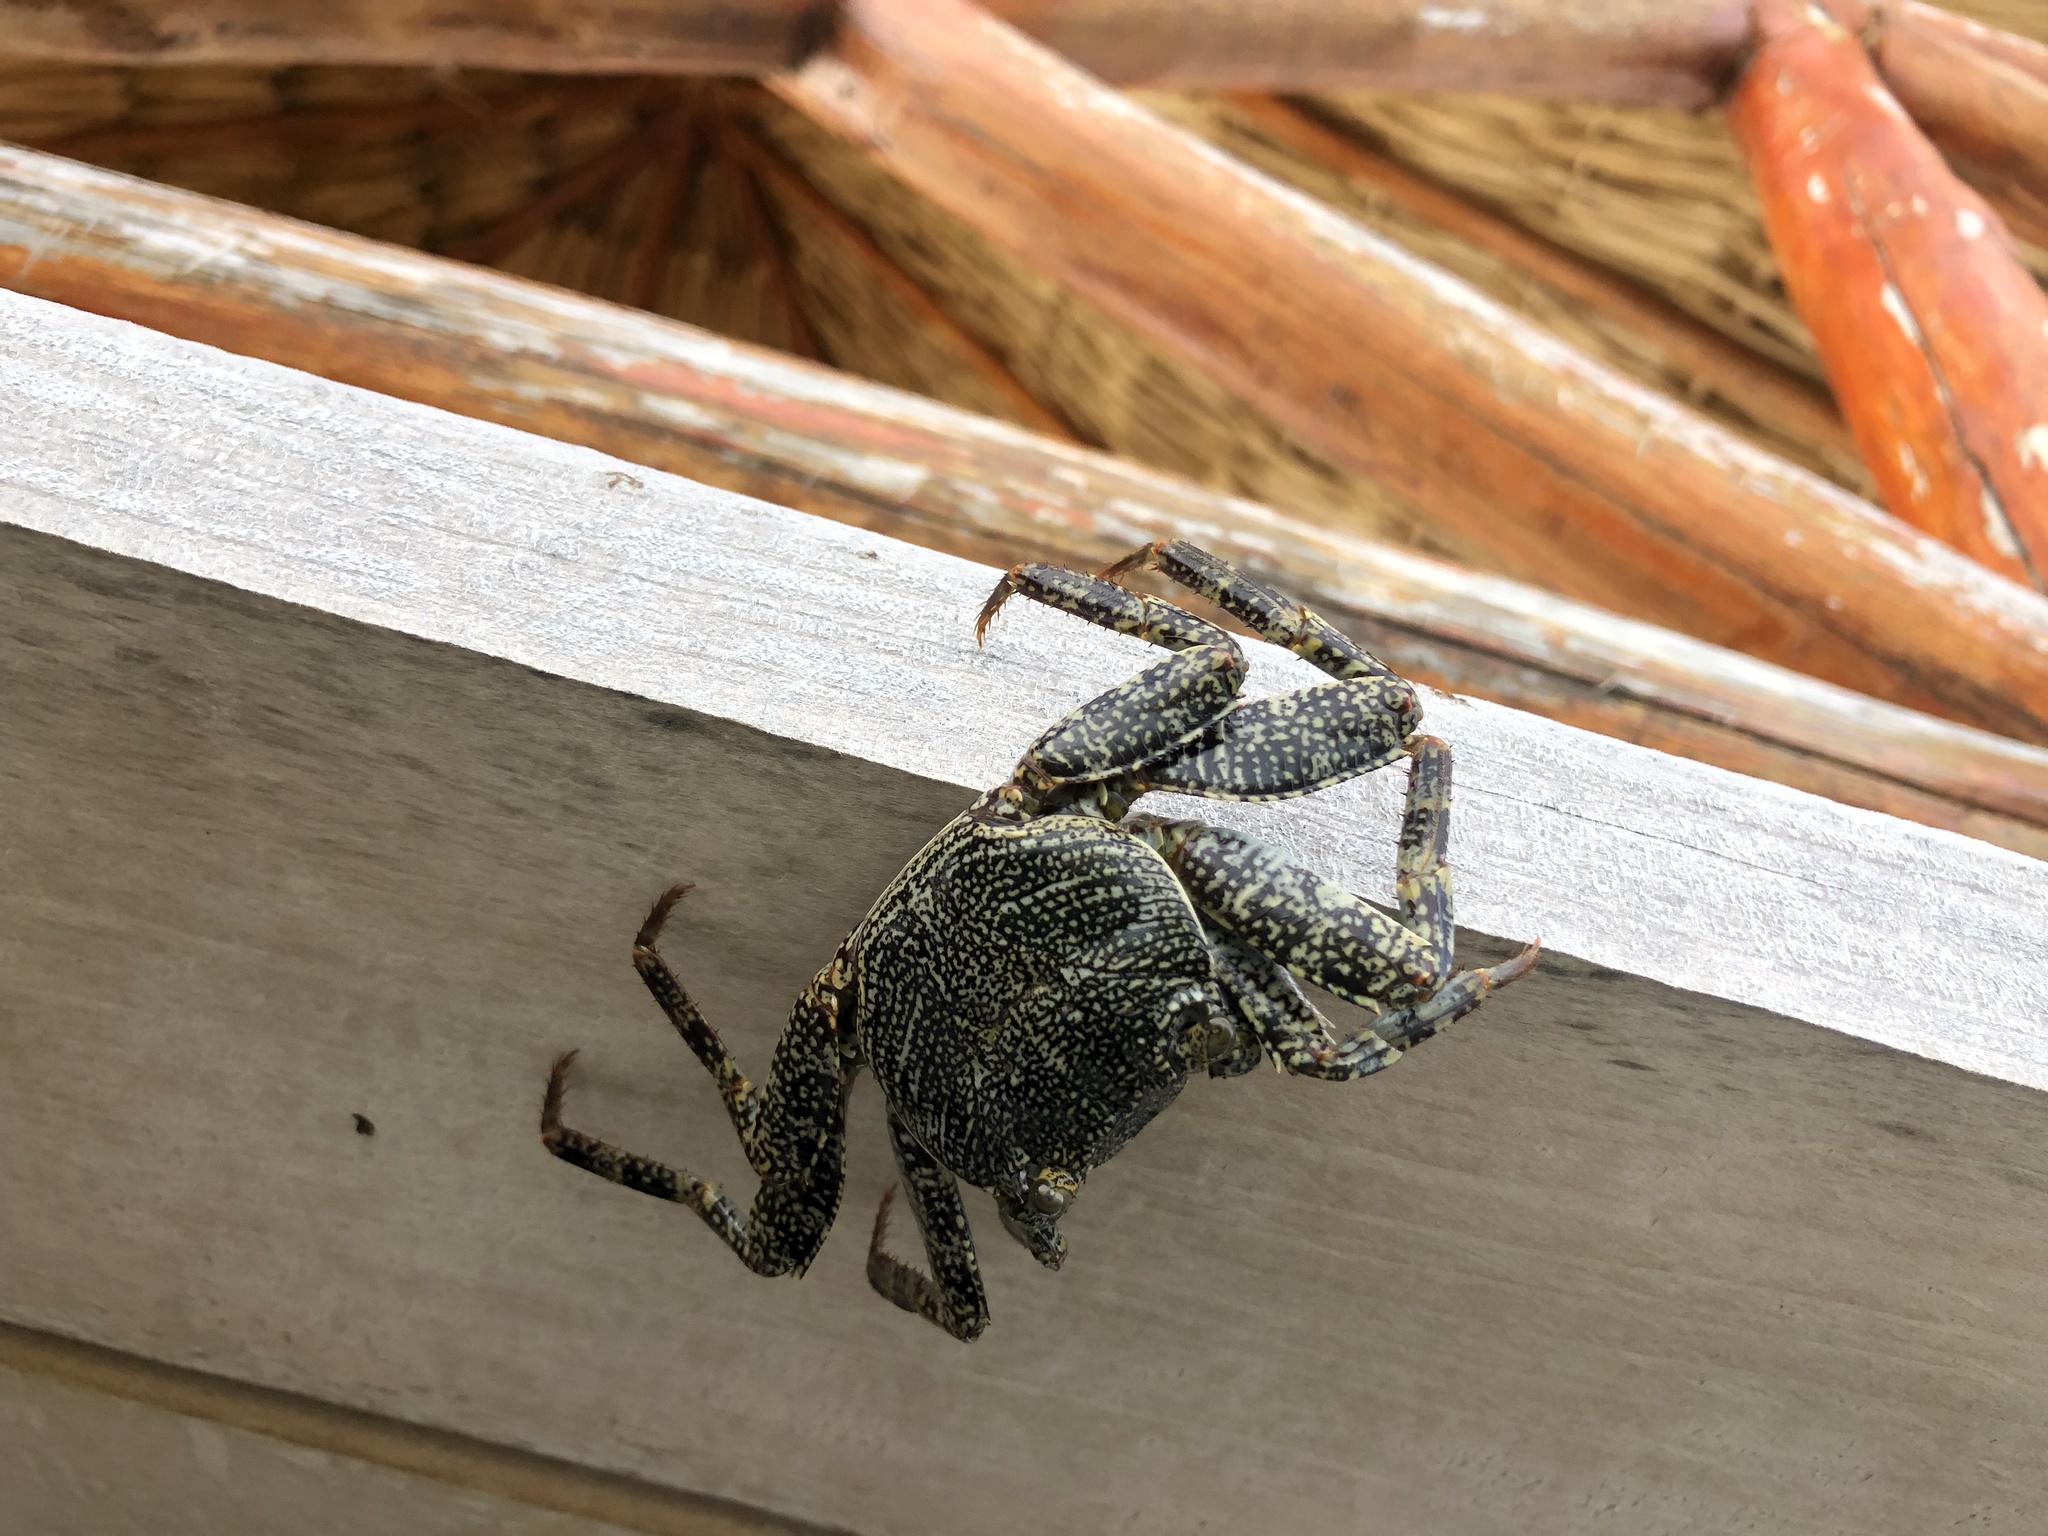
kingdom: Animalia
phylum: Arthropoda
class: Malacostraca
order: Decapoda
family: Grapsidae
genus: Grapsus
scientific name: Grapsus grapsus
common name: Sally lightfoot
